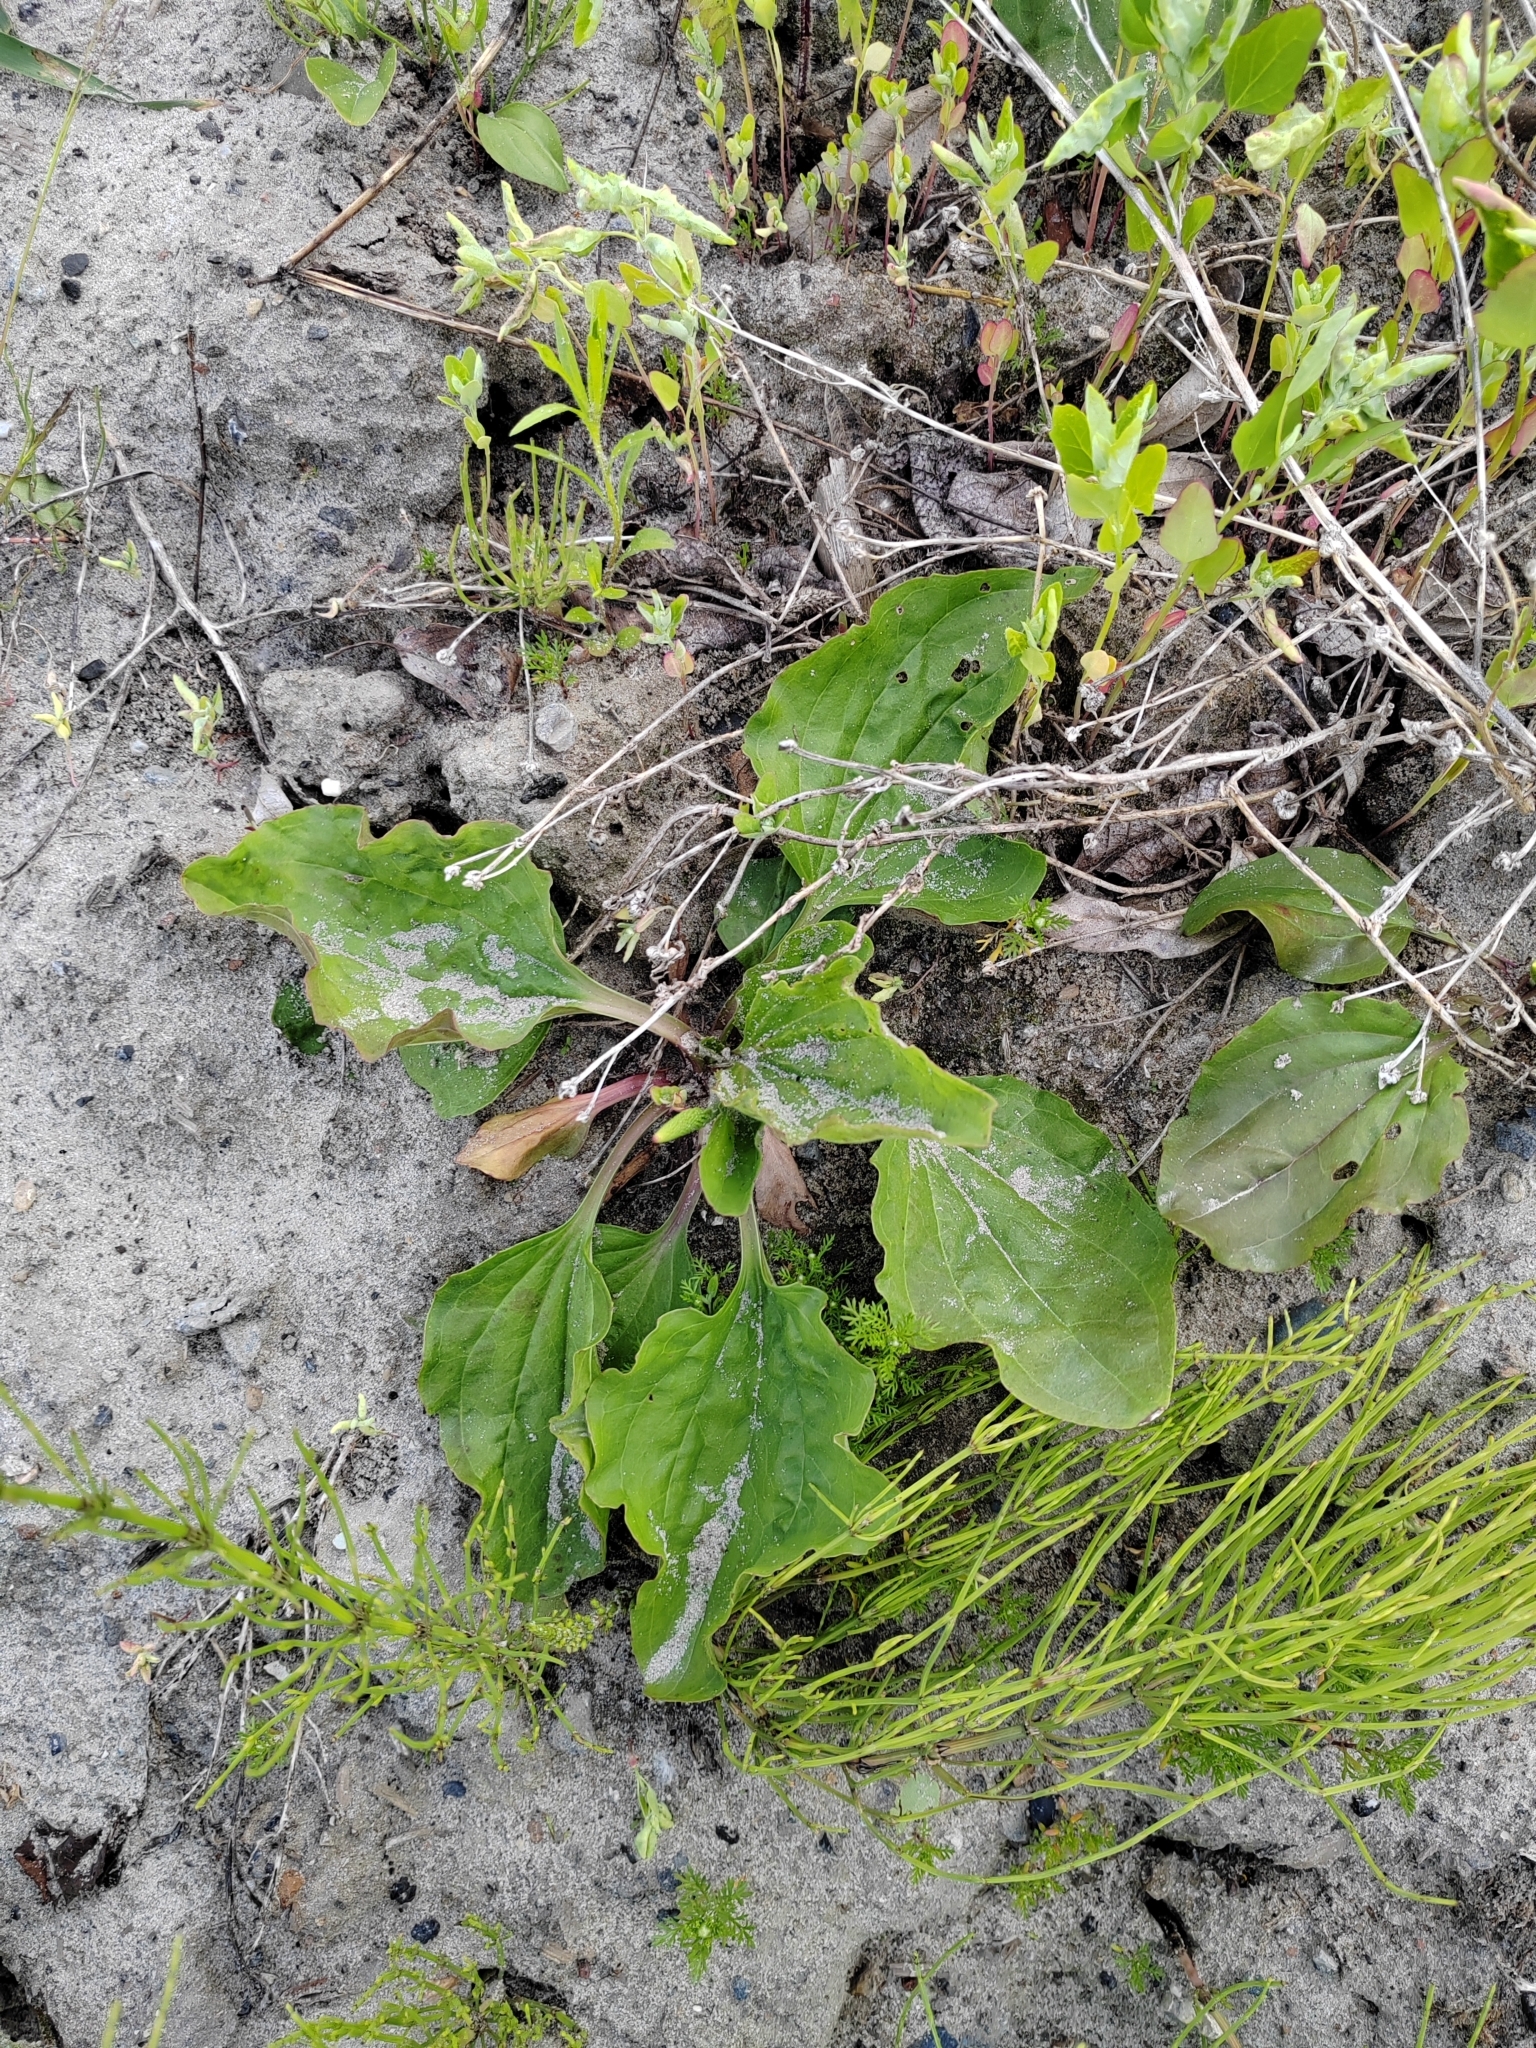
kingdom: Plantae
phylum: Tracheophyta
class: Magnoliopsida
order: Lamiales
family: Plantaginaceae
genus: Plantago
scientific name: Plantago major
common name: Common plantain
